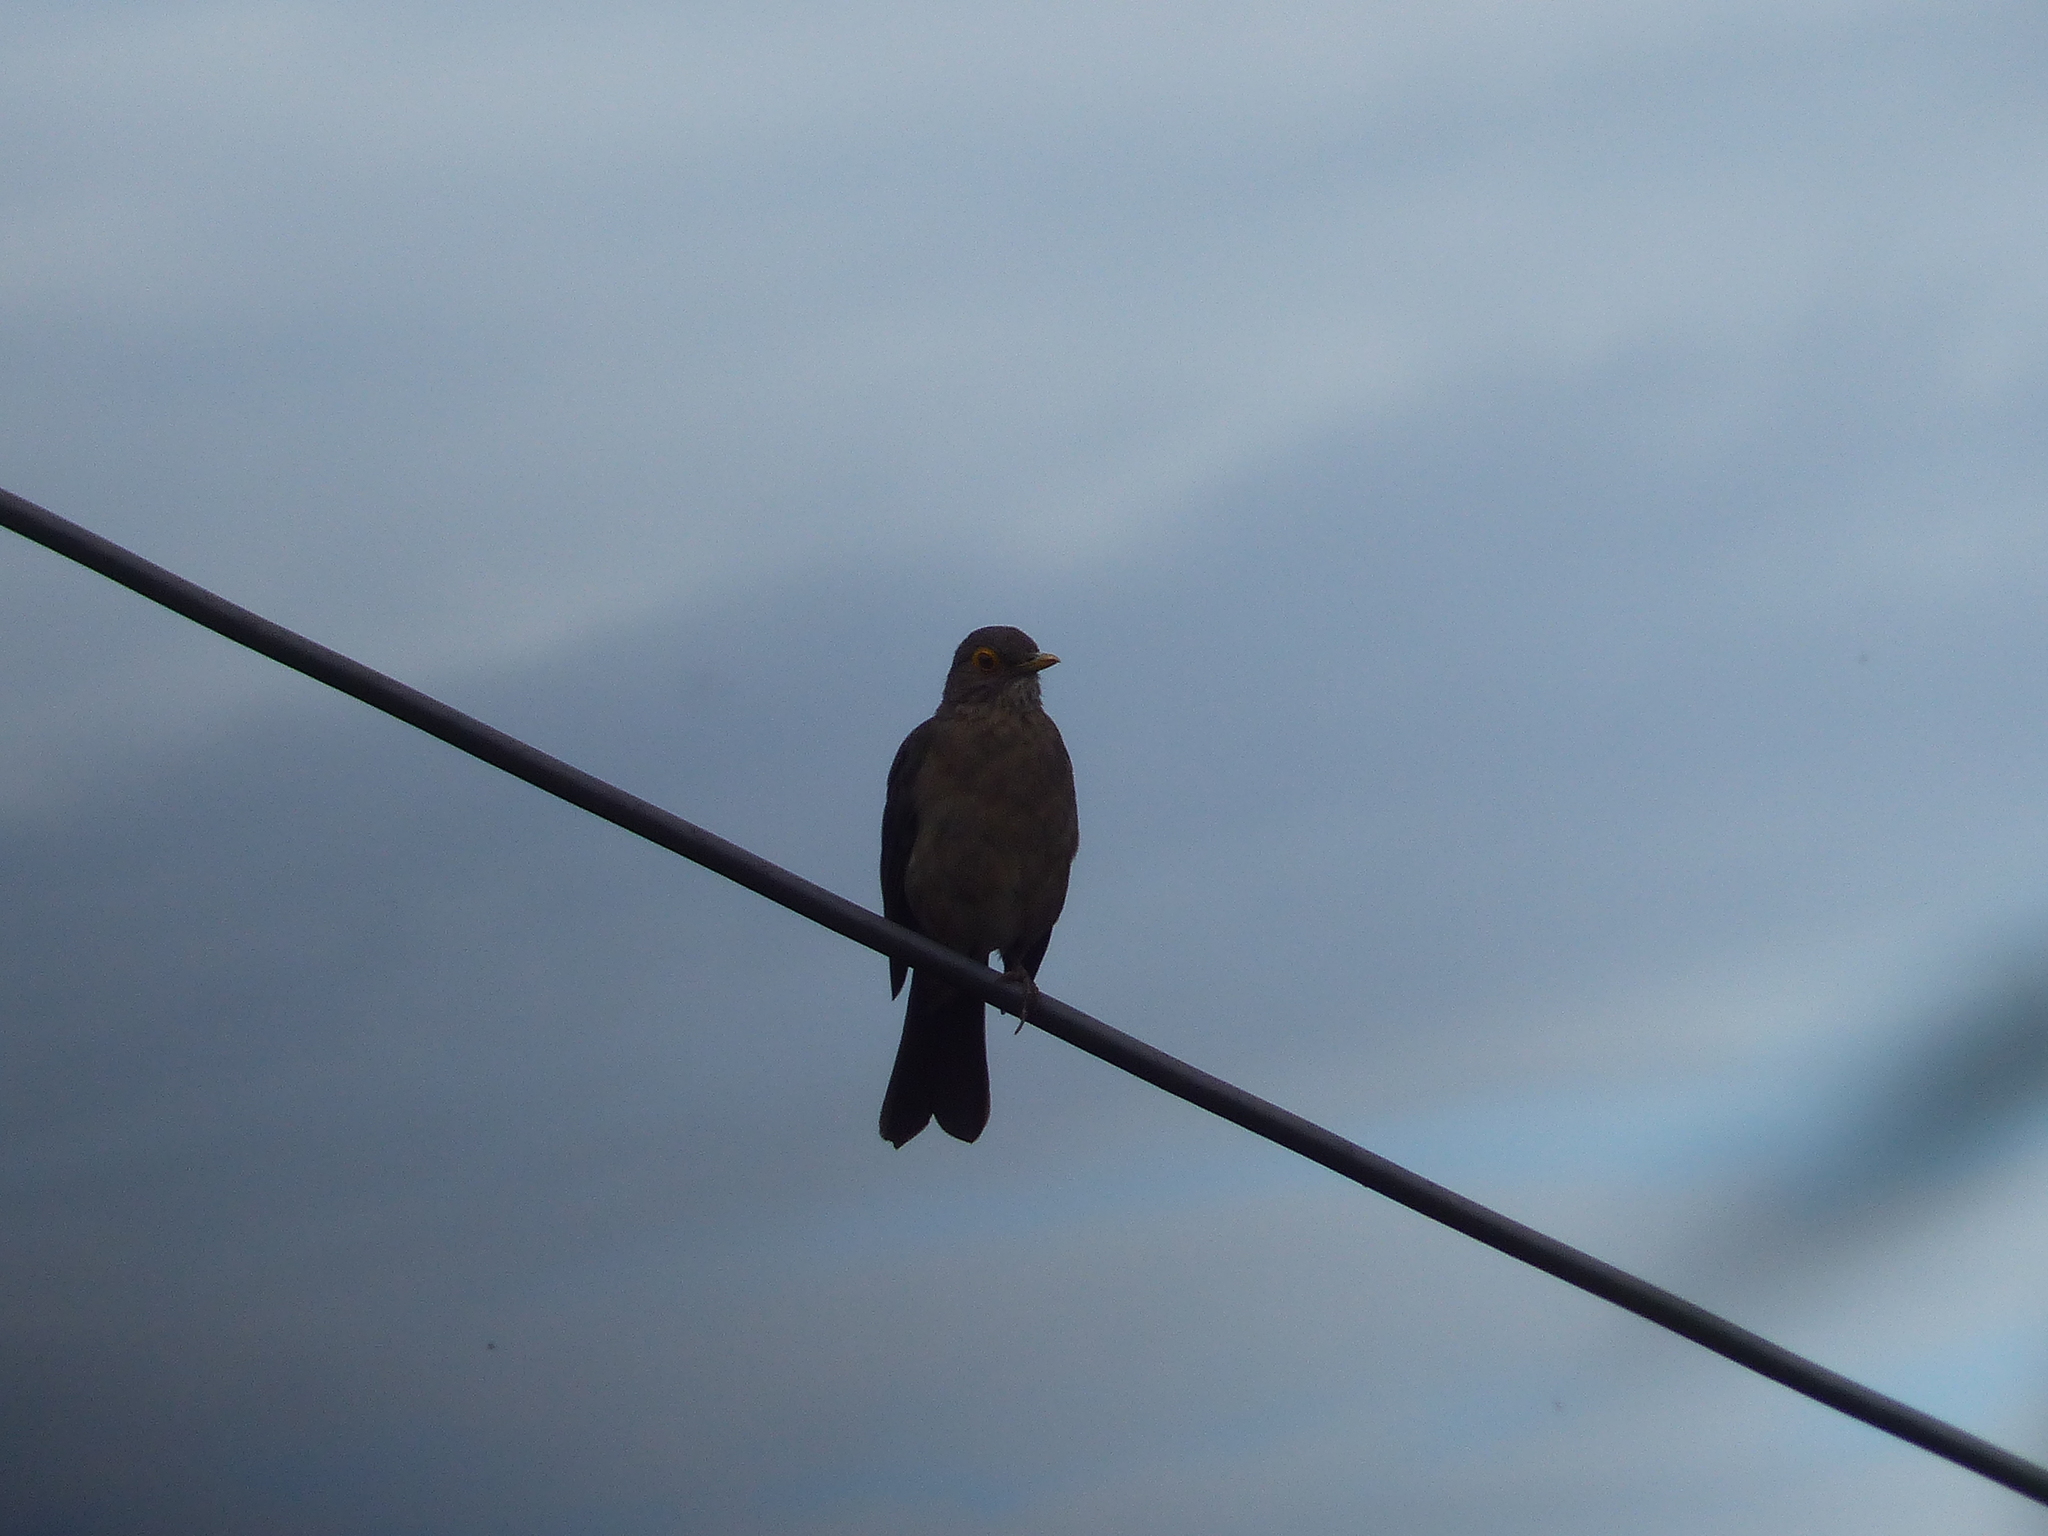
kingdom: Animalia
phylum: Chordata
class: Aves
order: Passeriformes
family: Turdidae
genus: Turdus
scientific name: Turdus nudigenis
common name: Spectacled thrush
